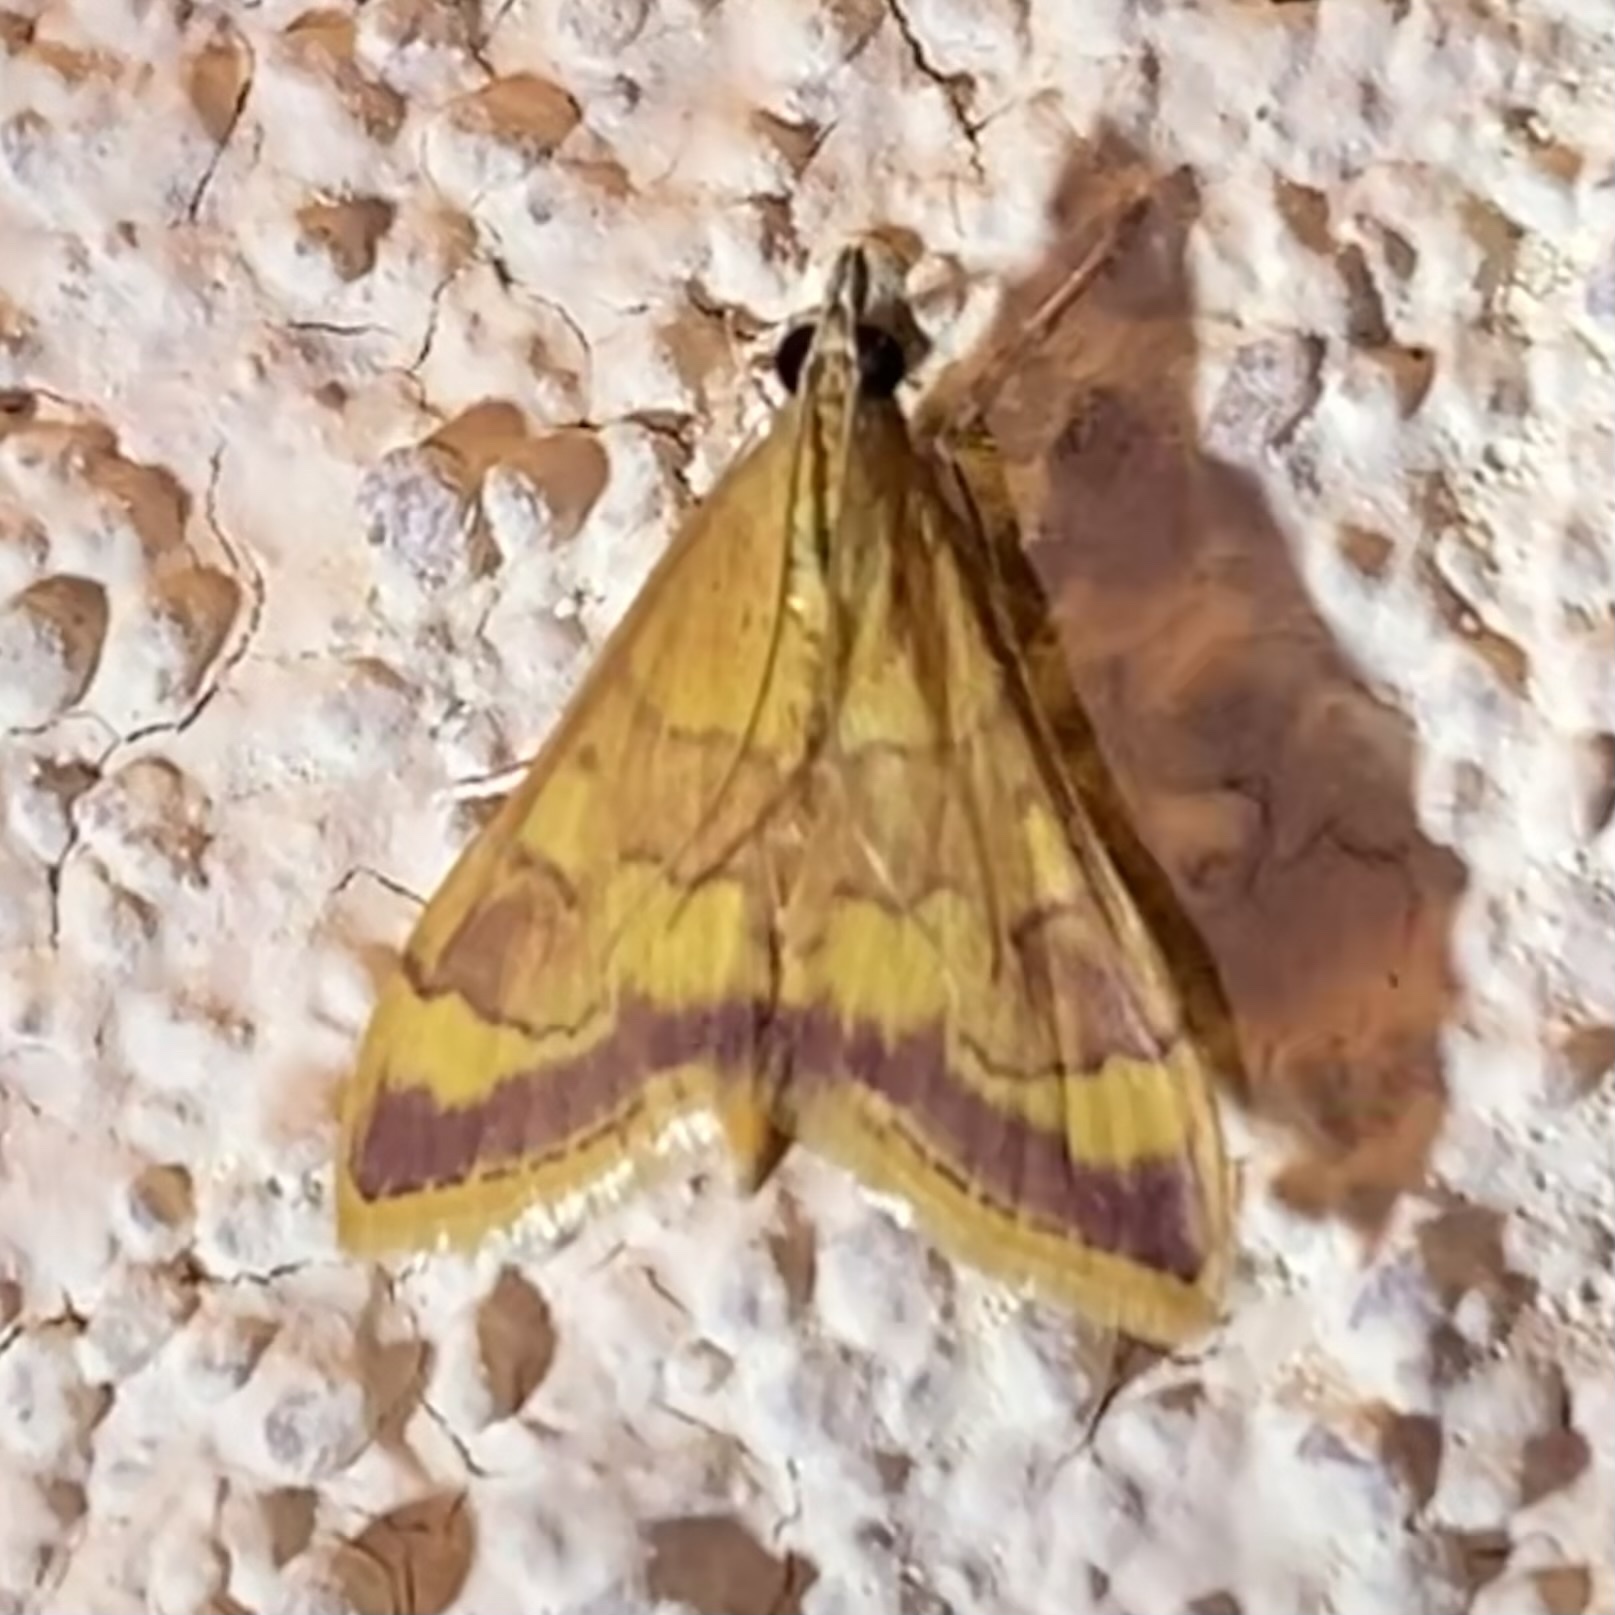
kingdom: Animalia
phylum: Arthropoda
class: Insecta
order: Lepidoptera
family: Crambidae
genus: Pyrausta
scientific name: Pyrausta pseudonythesalis
